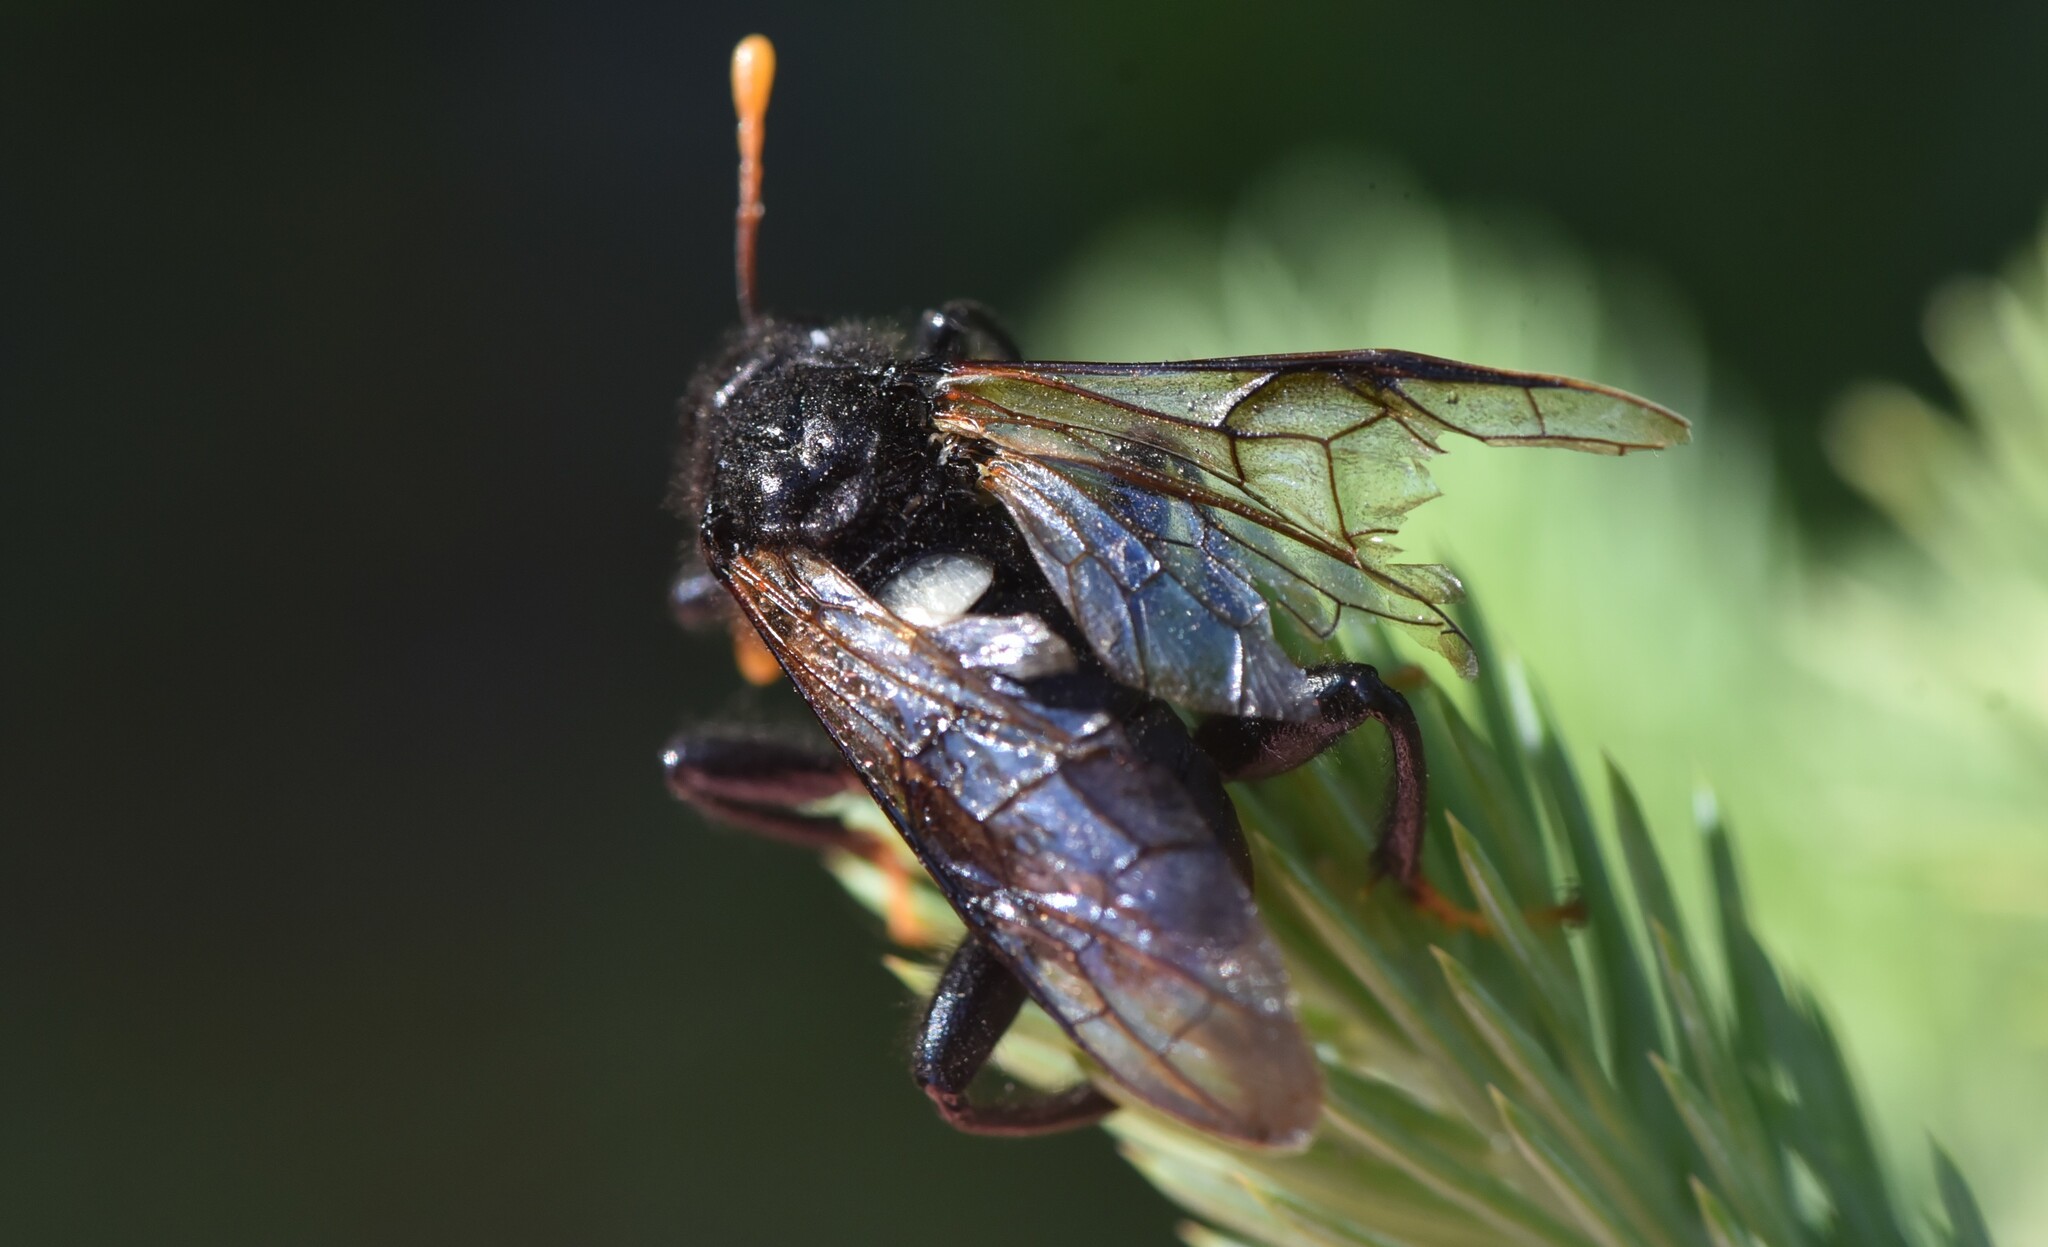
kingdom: Animalia
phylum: Arthropoda
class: Insecta
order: Hymenoptera
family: Cimbicidae
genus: Cimbex
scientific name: Cimbex americana
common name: Elm sawfly
